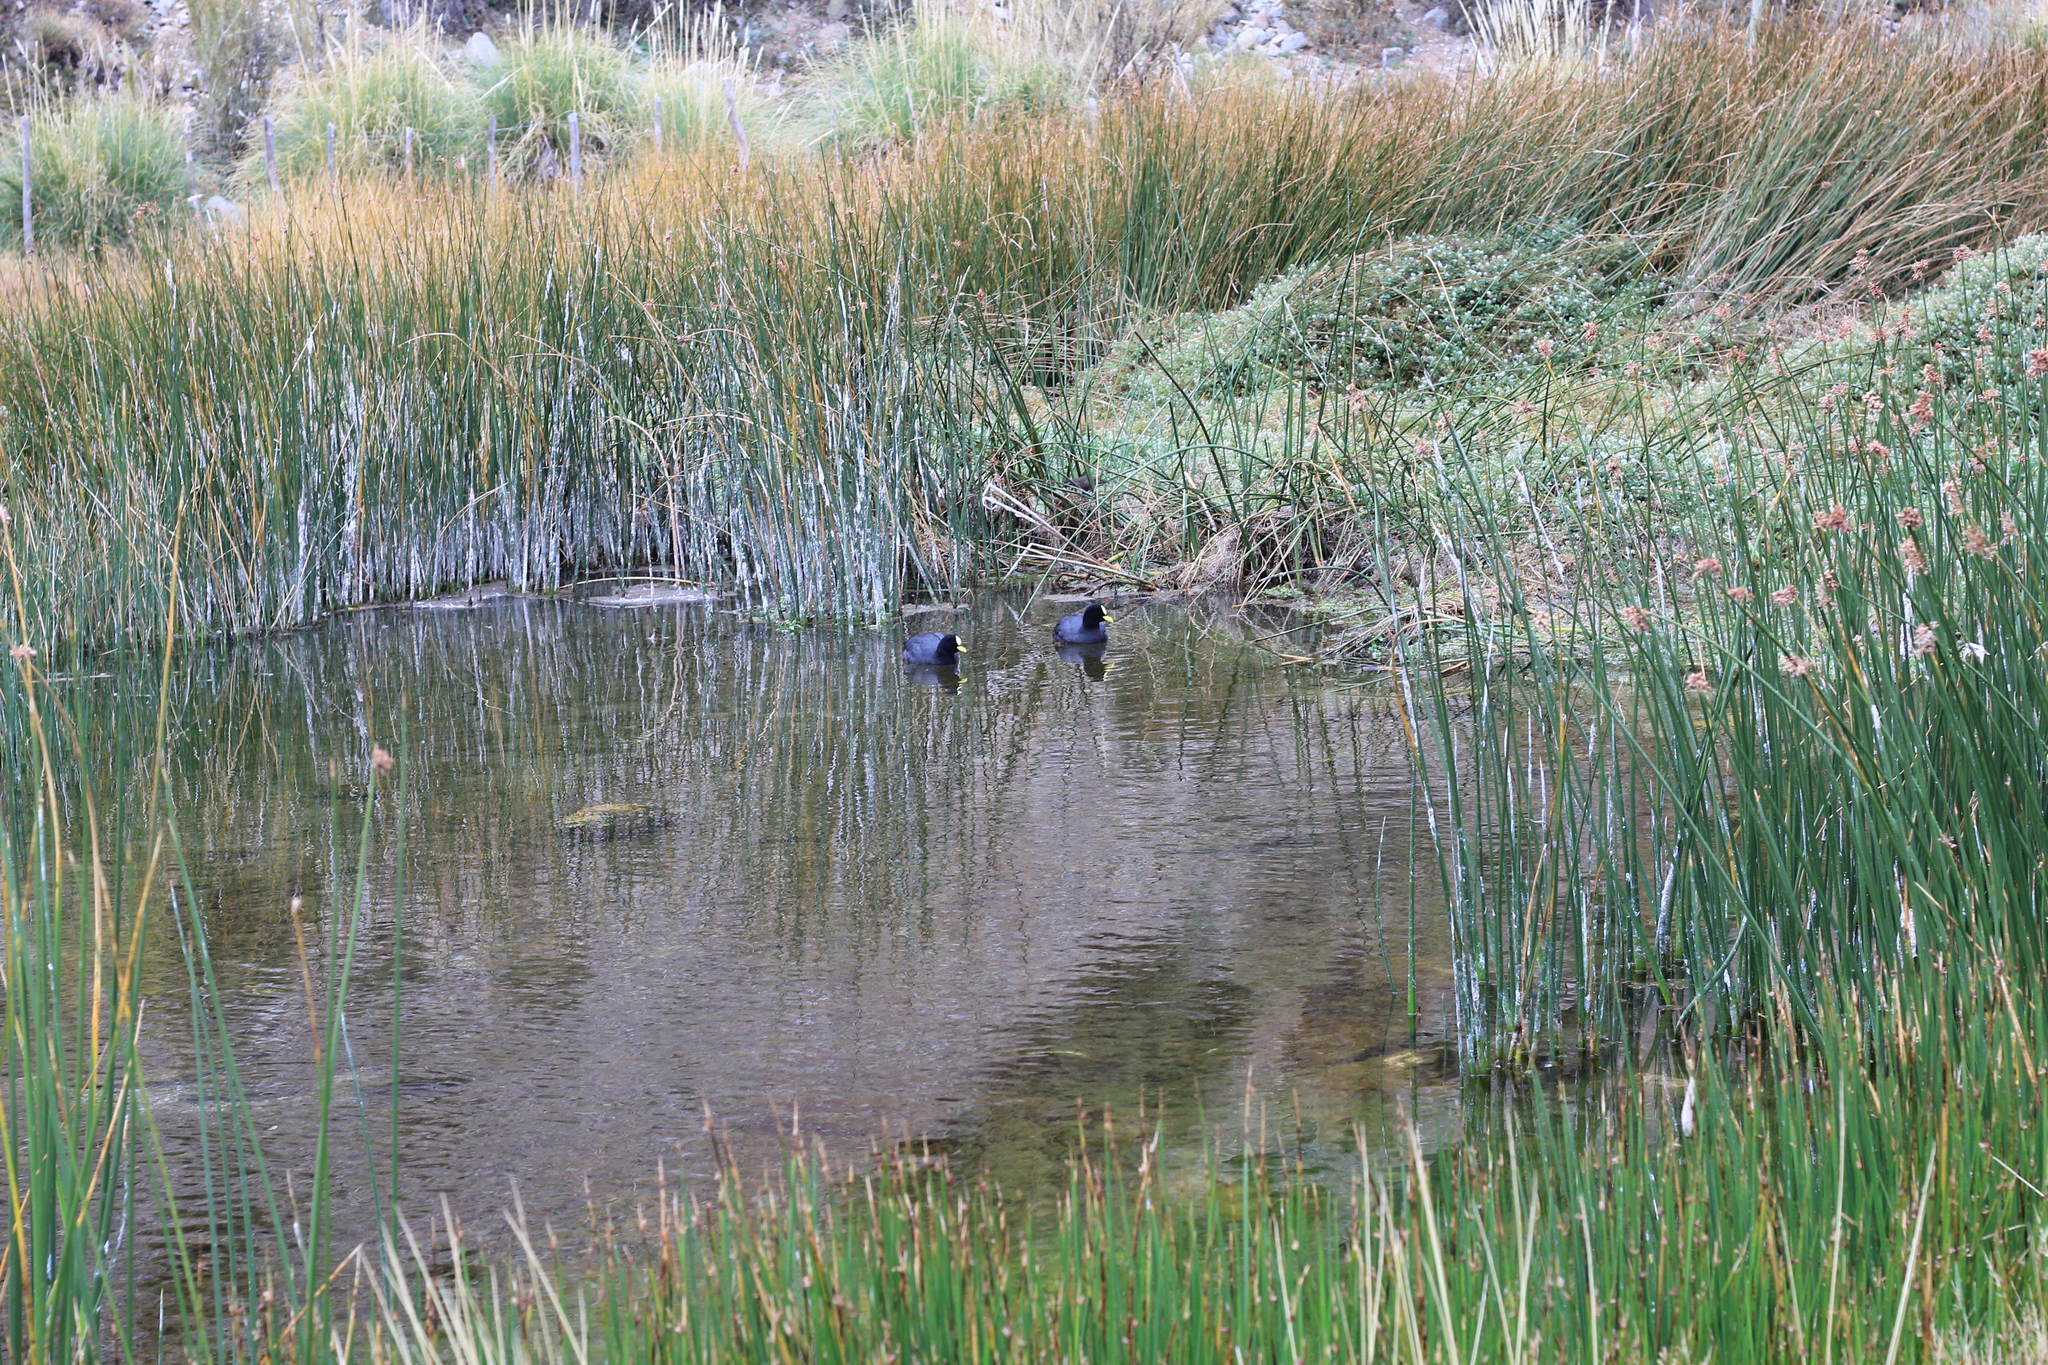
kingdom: Animalia
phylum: Chordata
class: Aves
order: Gruiformes
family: Rallidae
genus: Fulica
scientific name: Fulica armillata
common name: Red-gartered coot
